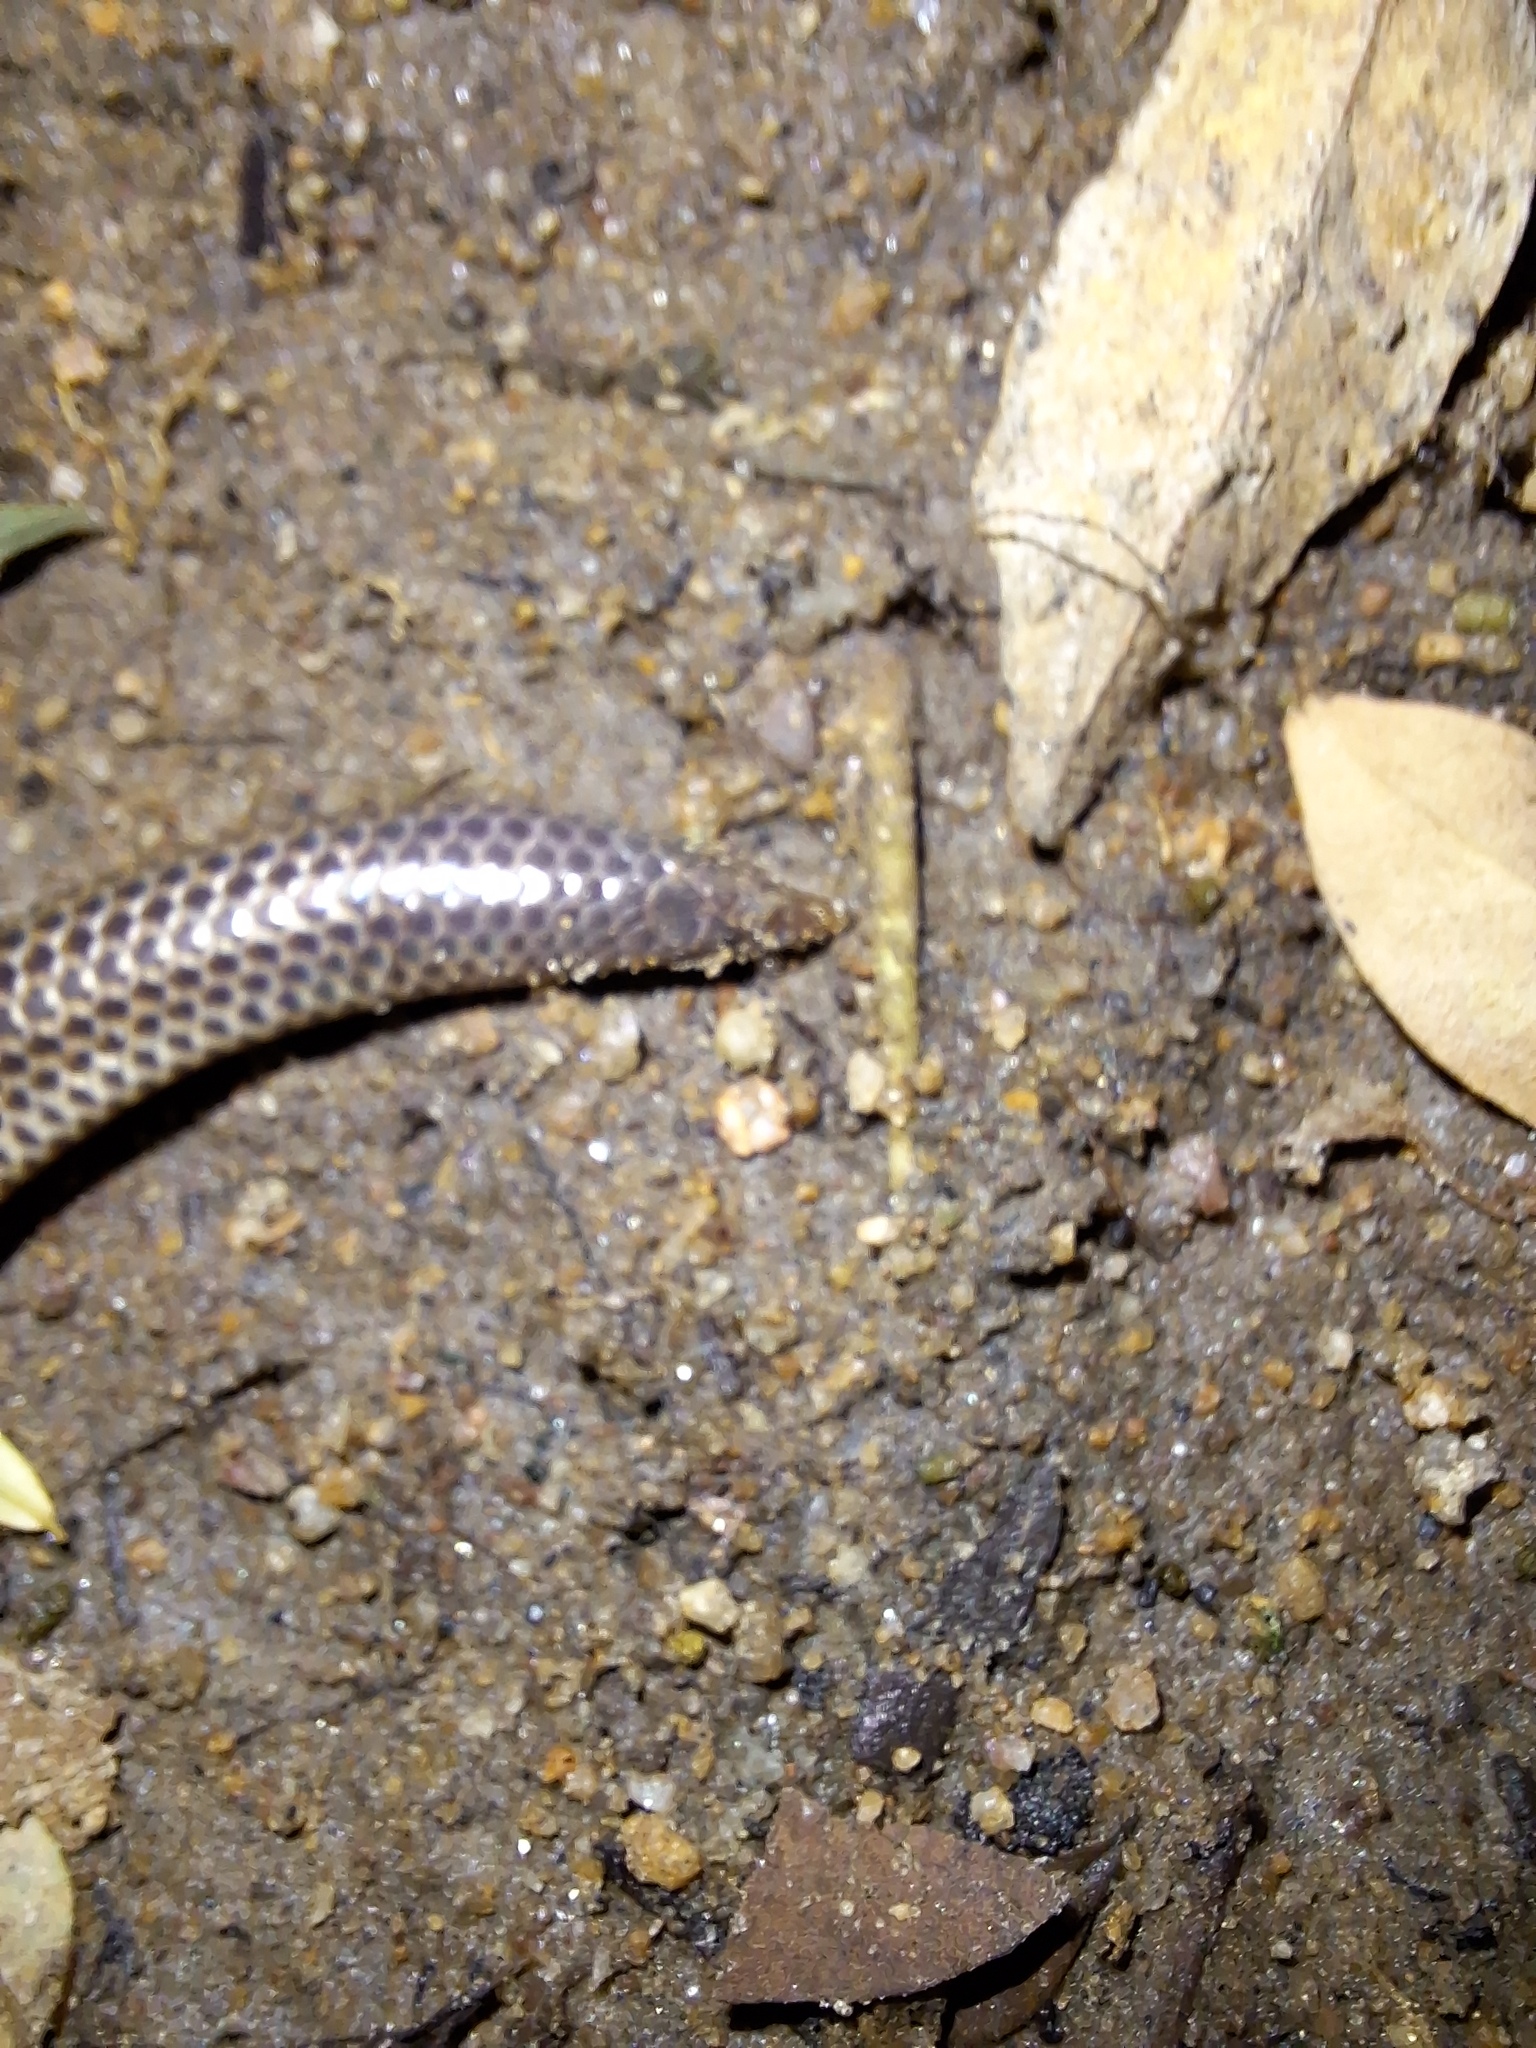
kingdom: Animalia
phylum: Chordata
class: Squamata
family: Uropeltidae
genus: Rhinophis
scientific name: Rhinophis oxyrhynchus
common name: Schneider's earth snake
